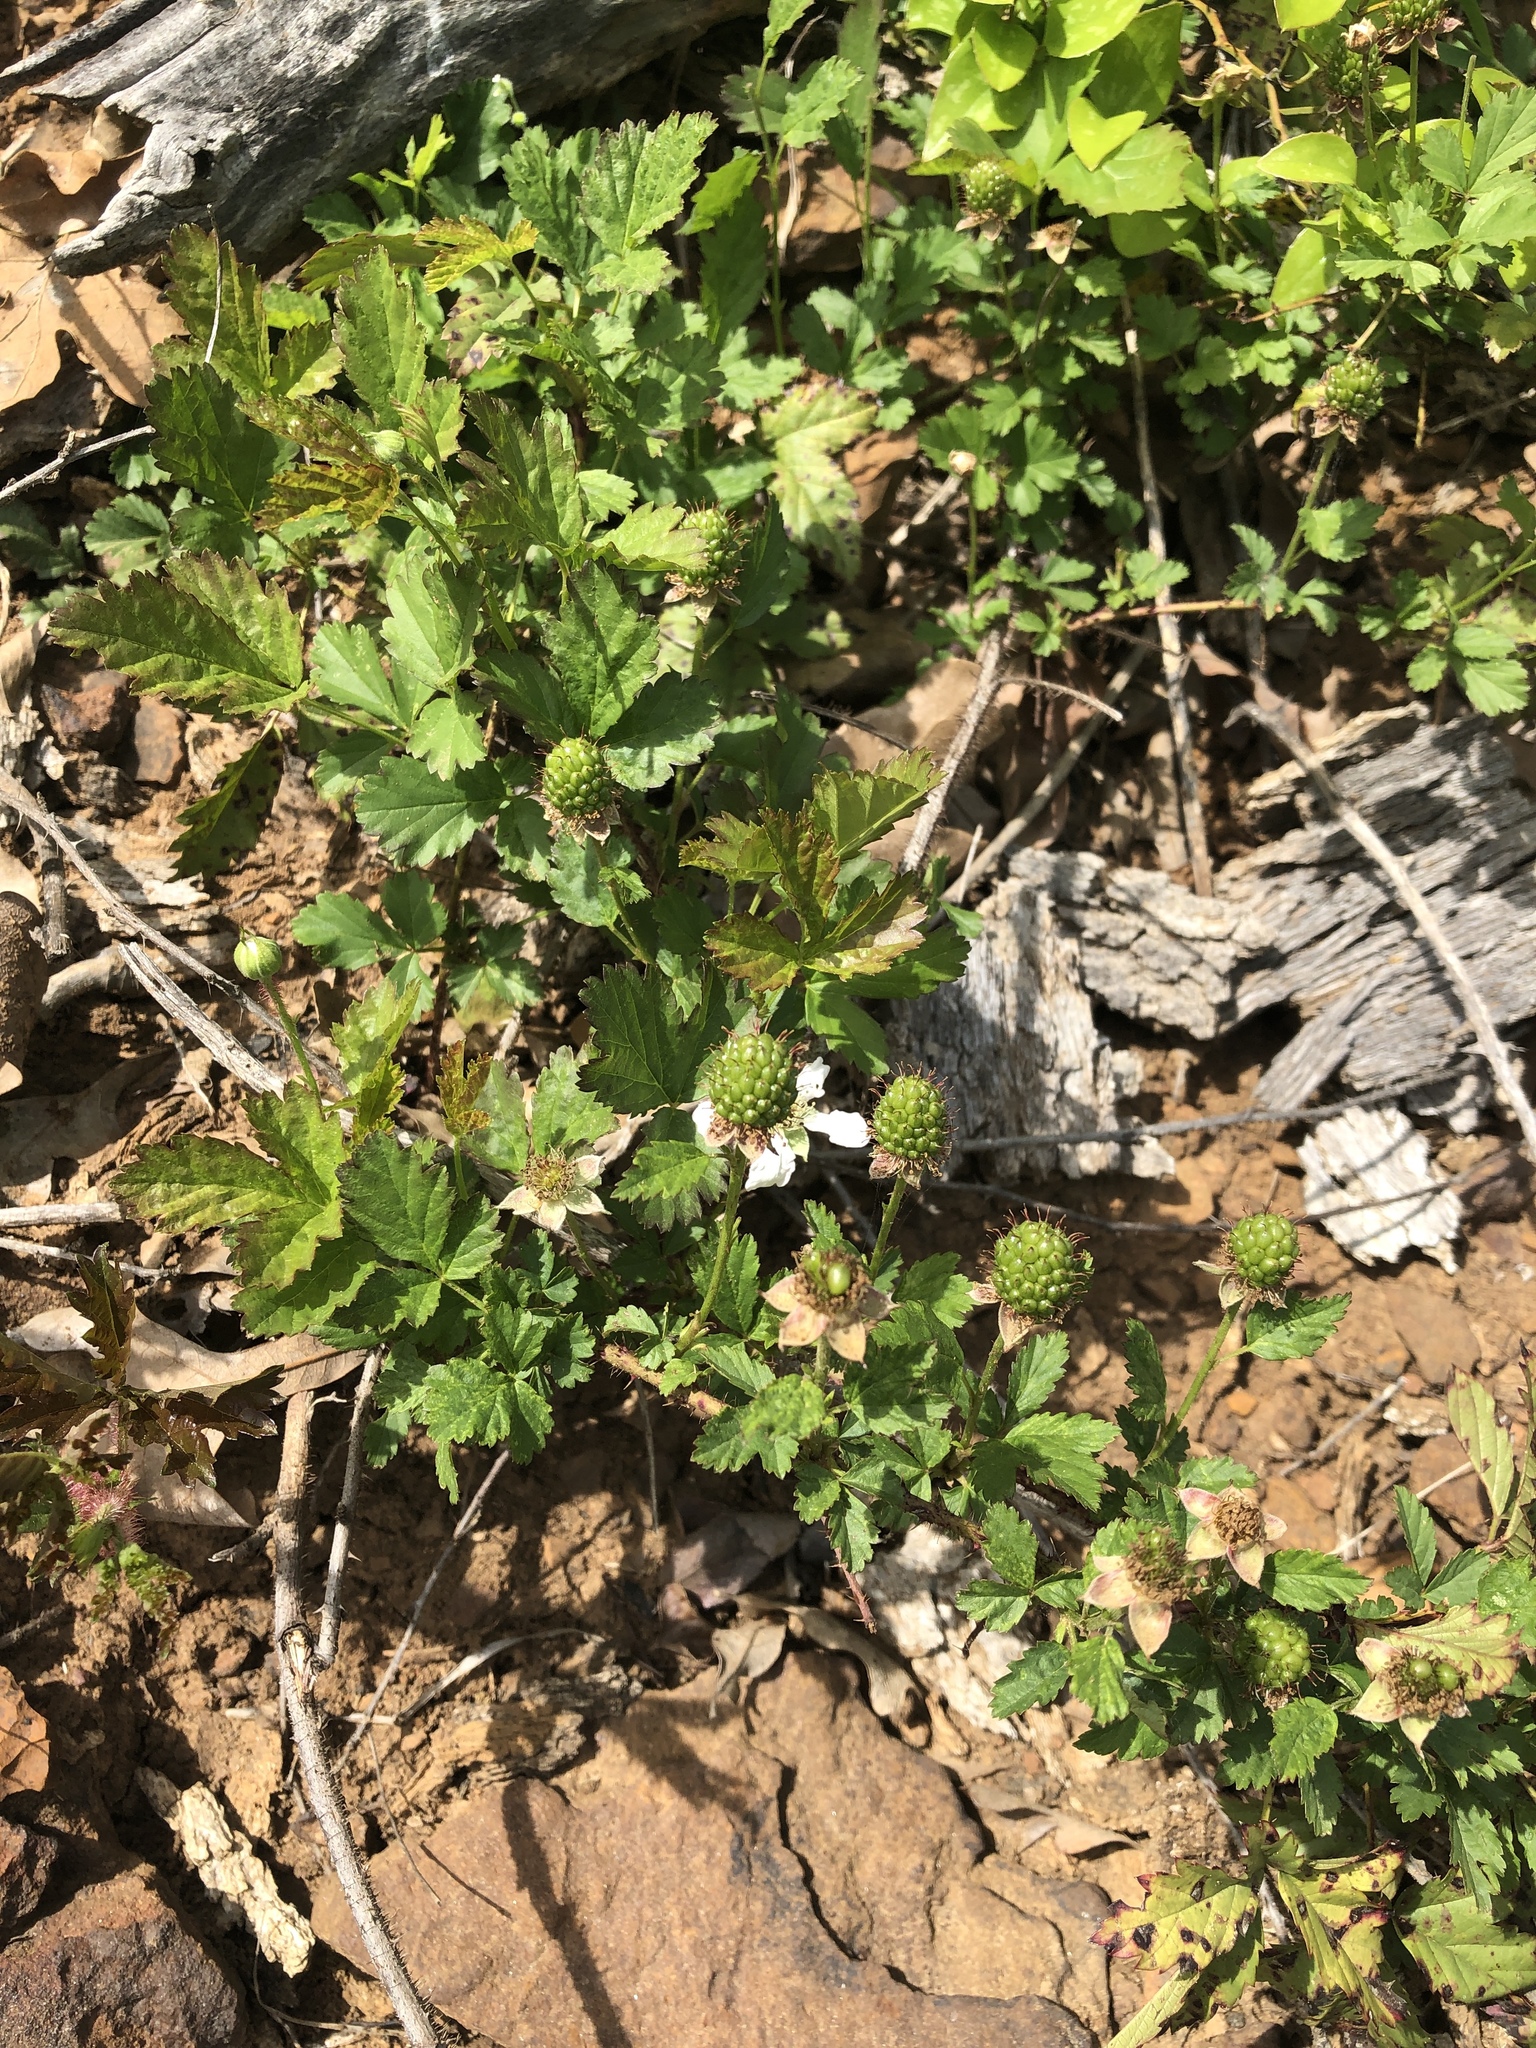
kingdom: Plantae
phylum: Tracheophyta
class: Magnoliopsida
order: Rosales
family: Rosaceae
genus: Rubus
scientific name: Rubus trivialis
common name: Southern dewberry
